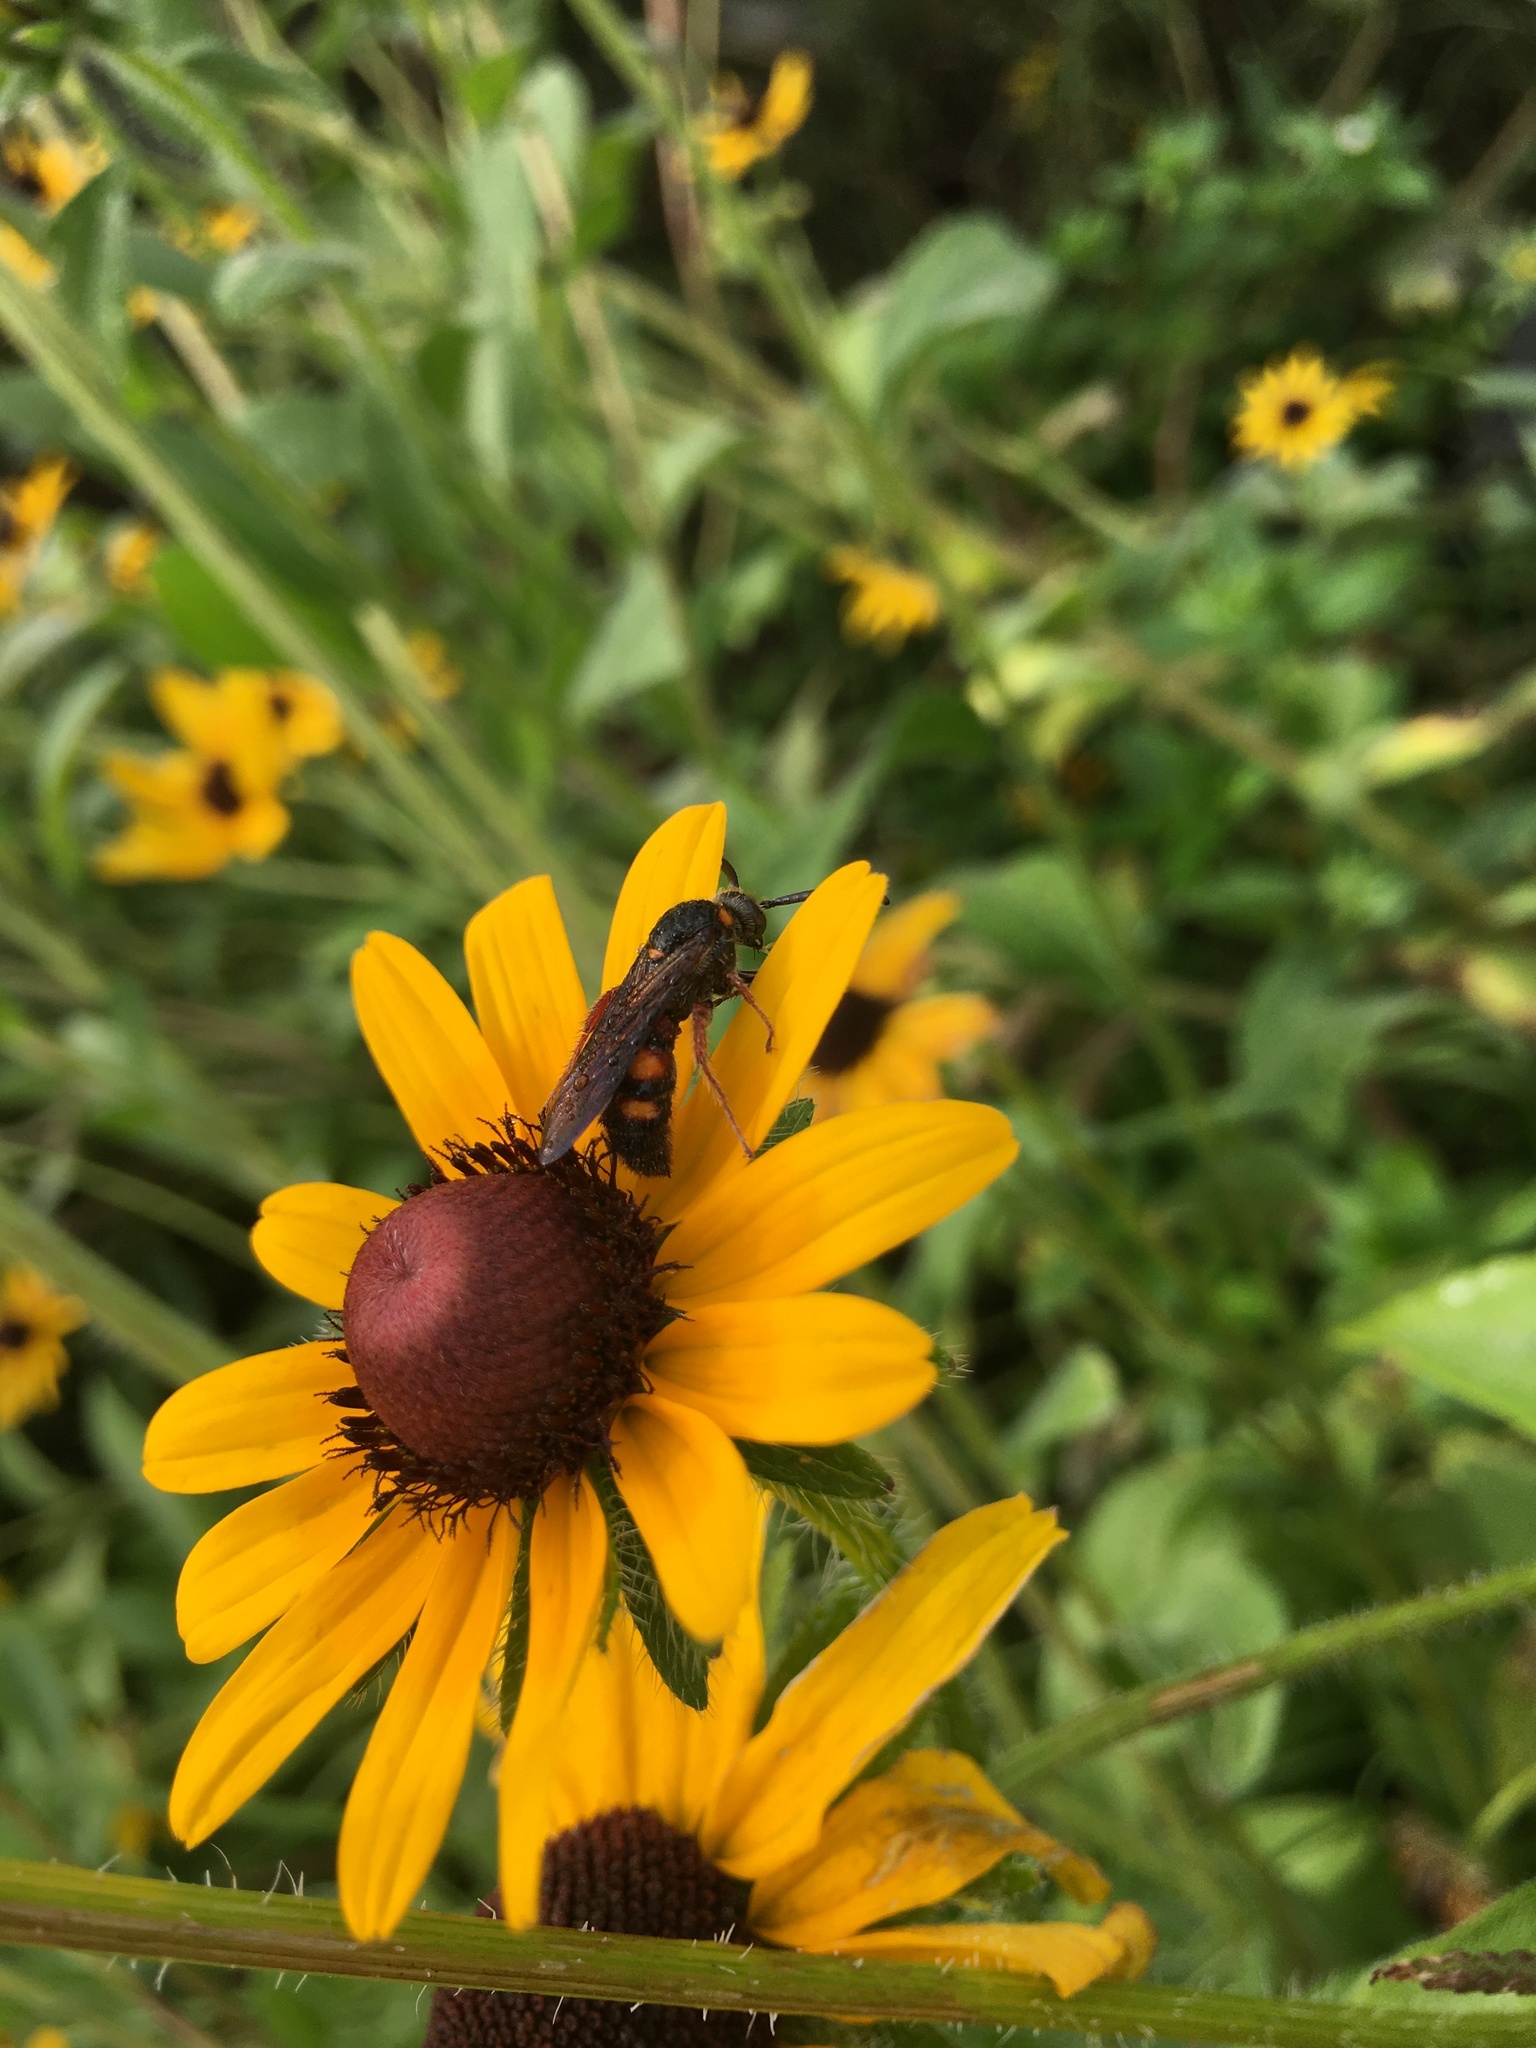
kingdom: Animalia
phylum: Arthropoda
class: Insecta
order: Hymenoptera
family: Scoliidae
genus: Scolia
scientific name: Scolia nobilitata
